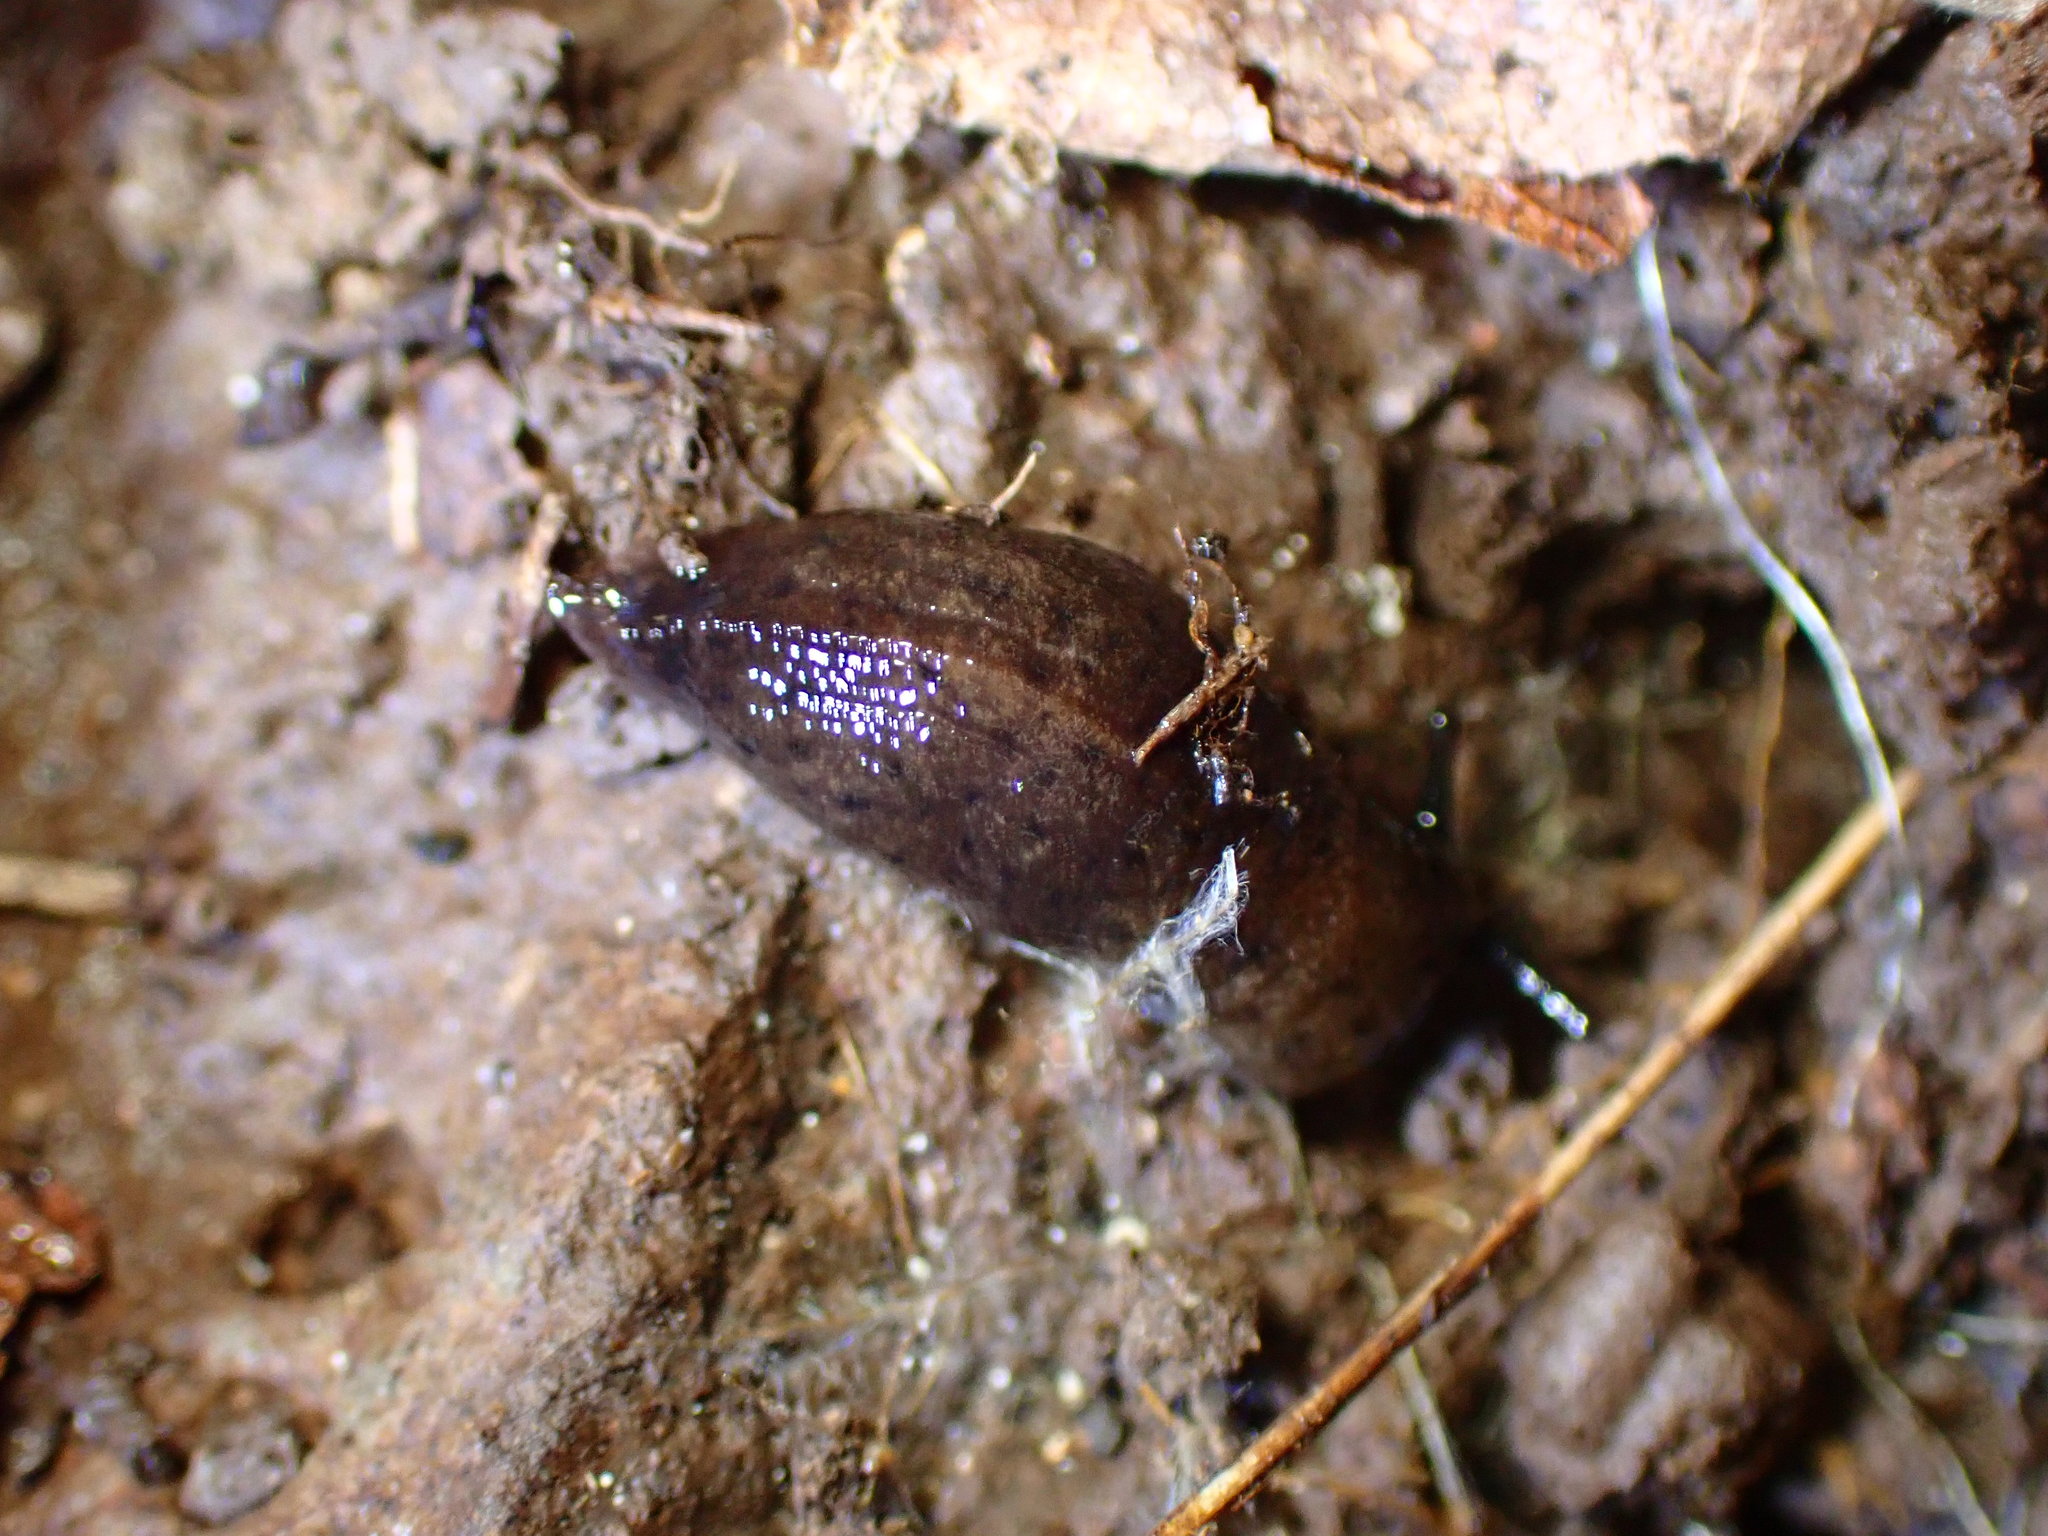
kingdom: Animalia
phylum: Mollusca
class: Gastropoda
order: Stylommatophora
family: Ariolimacidae
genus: Hesperarion
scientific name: Hesperarion niger
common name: Black western slug
